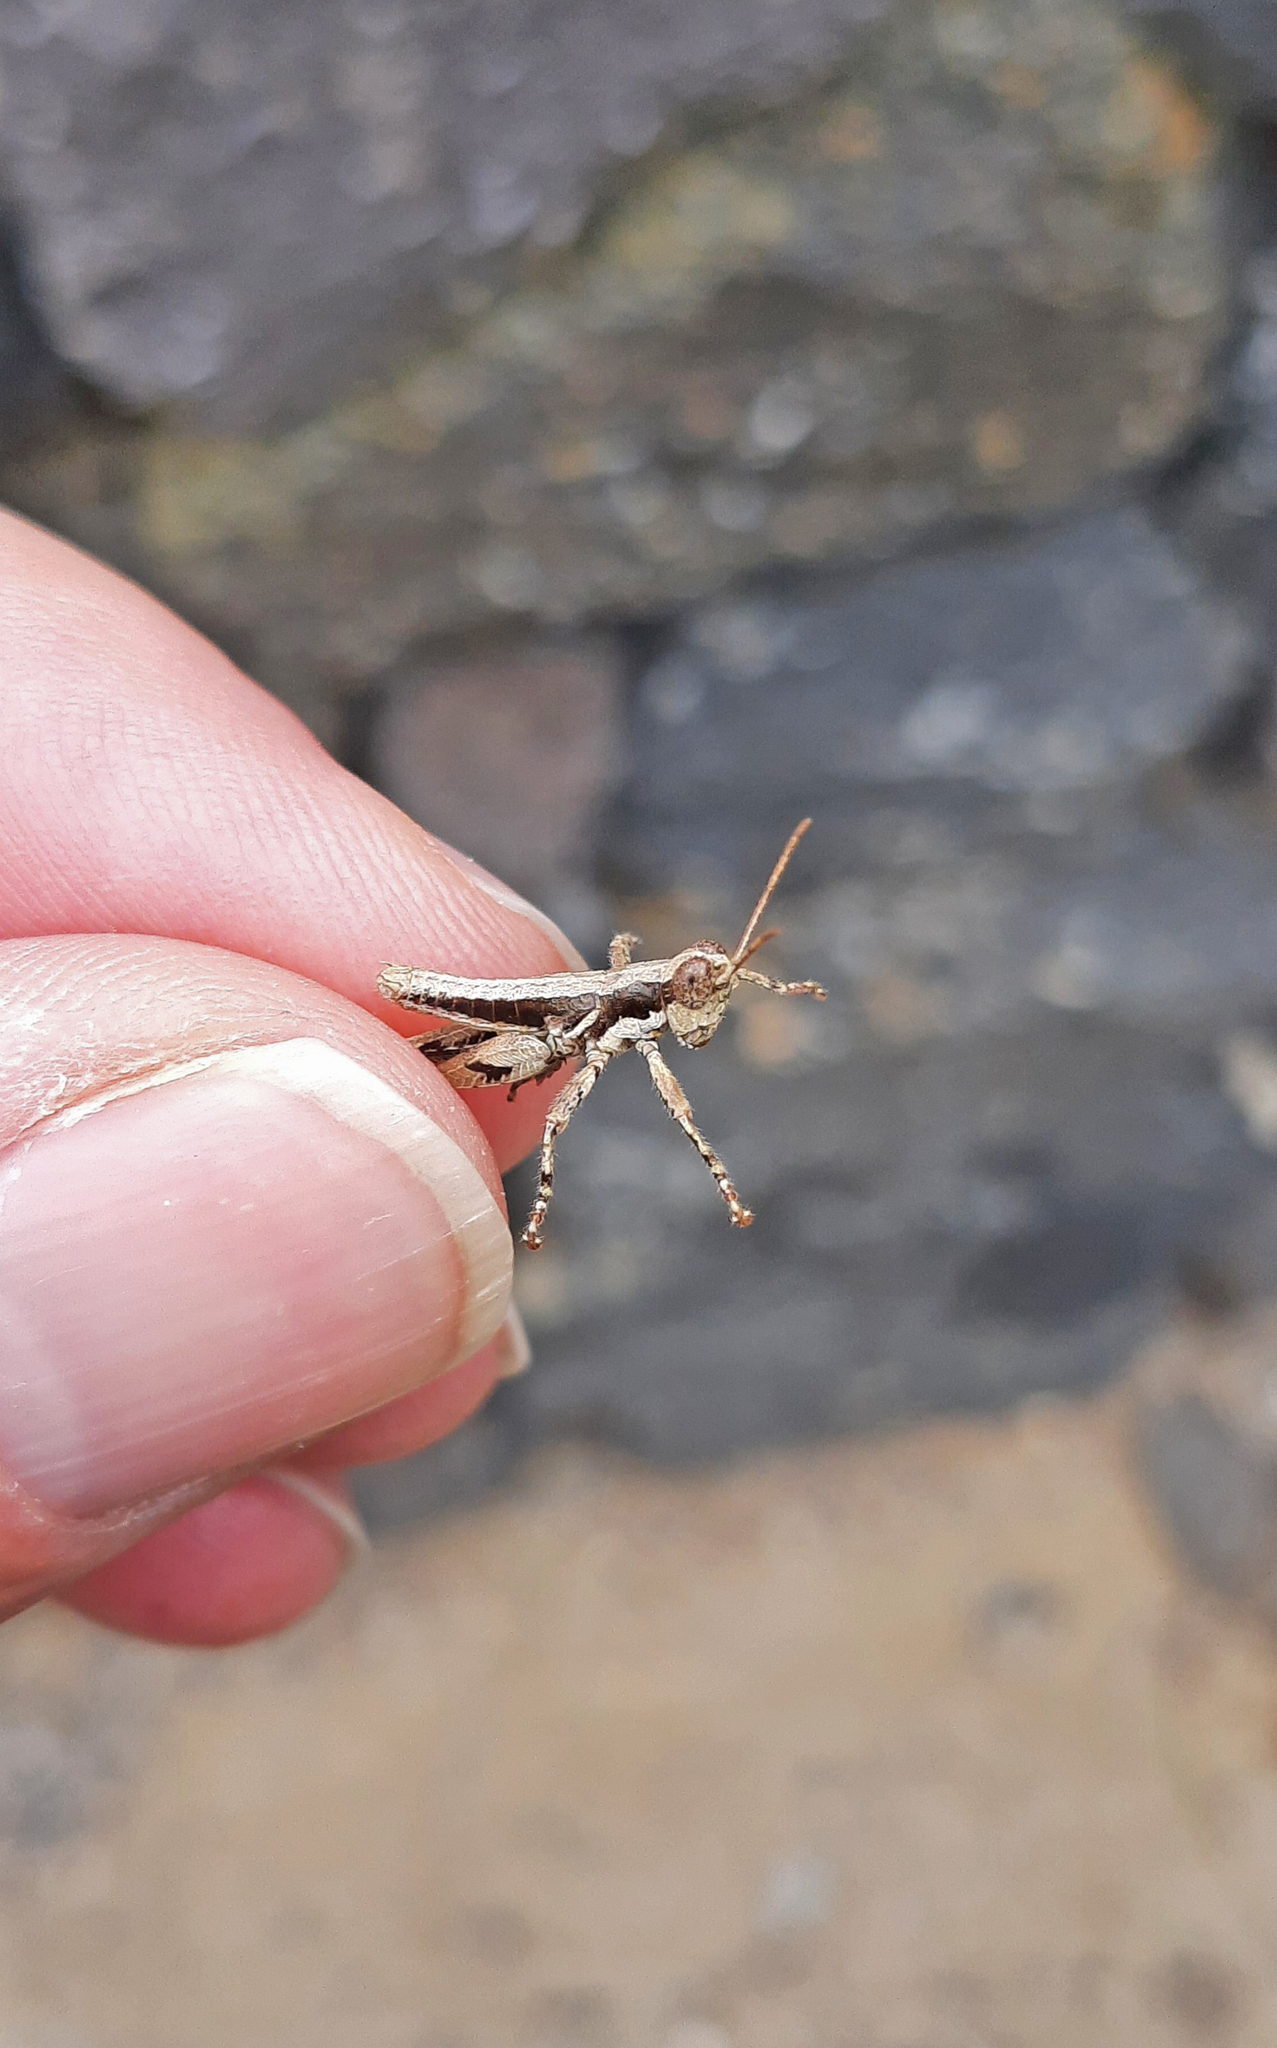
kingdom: Animalia
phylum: Arthropoda
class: Insecta
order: Orthoptera
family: Acrididae
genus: Arminda
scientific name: Arminda latifrons
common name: Gomera rock grasshopper
